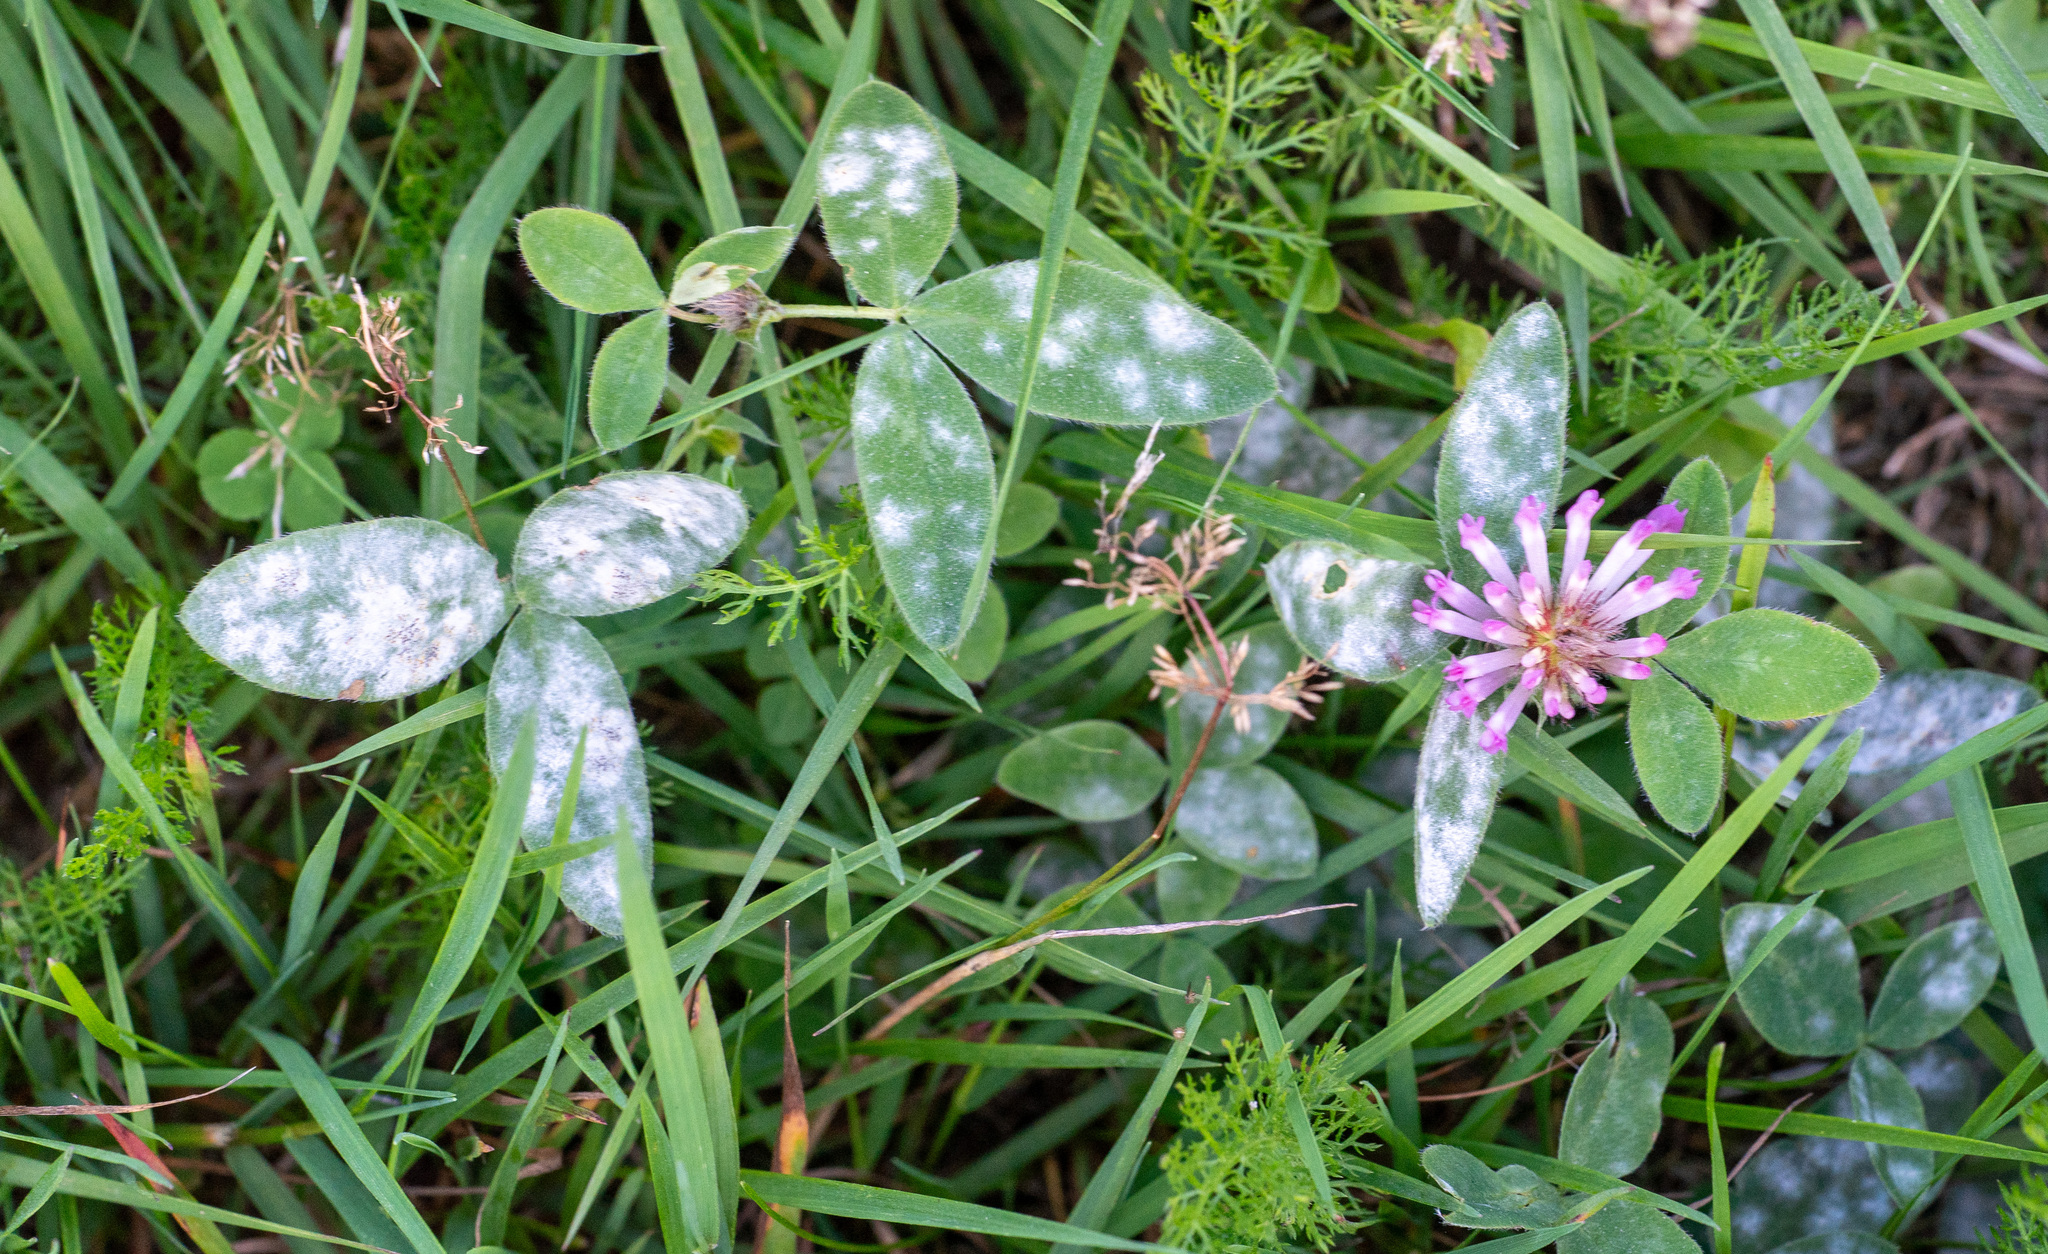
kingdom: Plantae
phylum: Tracheophyta
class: Magnoliopsida
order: Fabales
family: Fabaceae
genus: Trifolium
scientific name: Trifolium medium
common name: Zigzag clover
